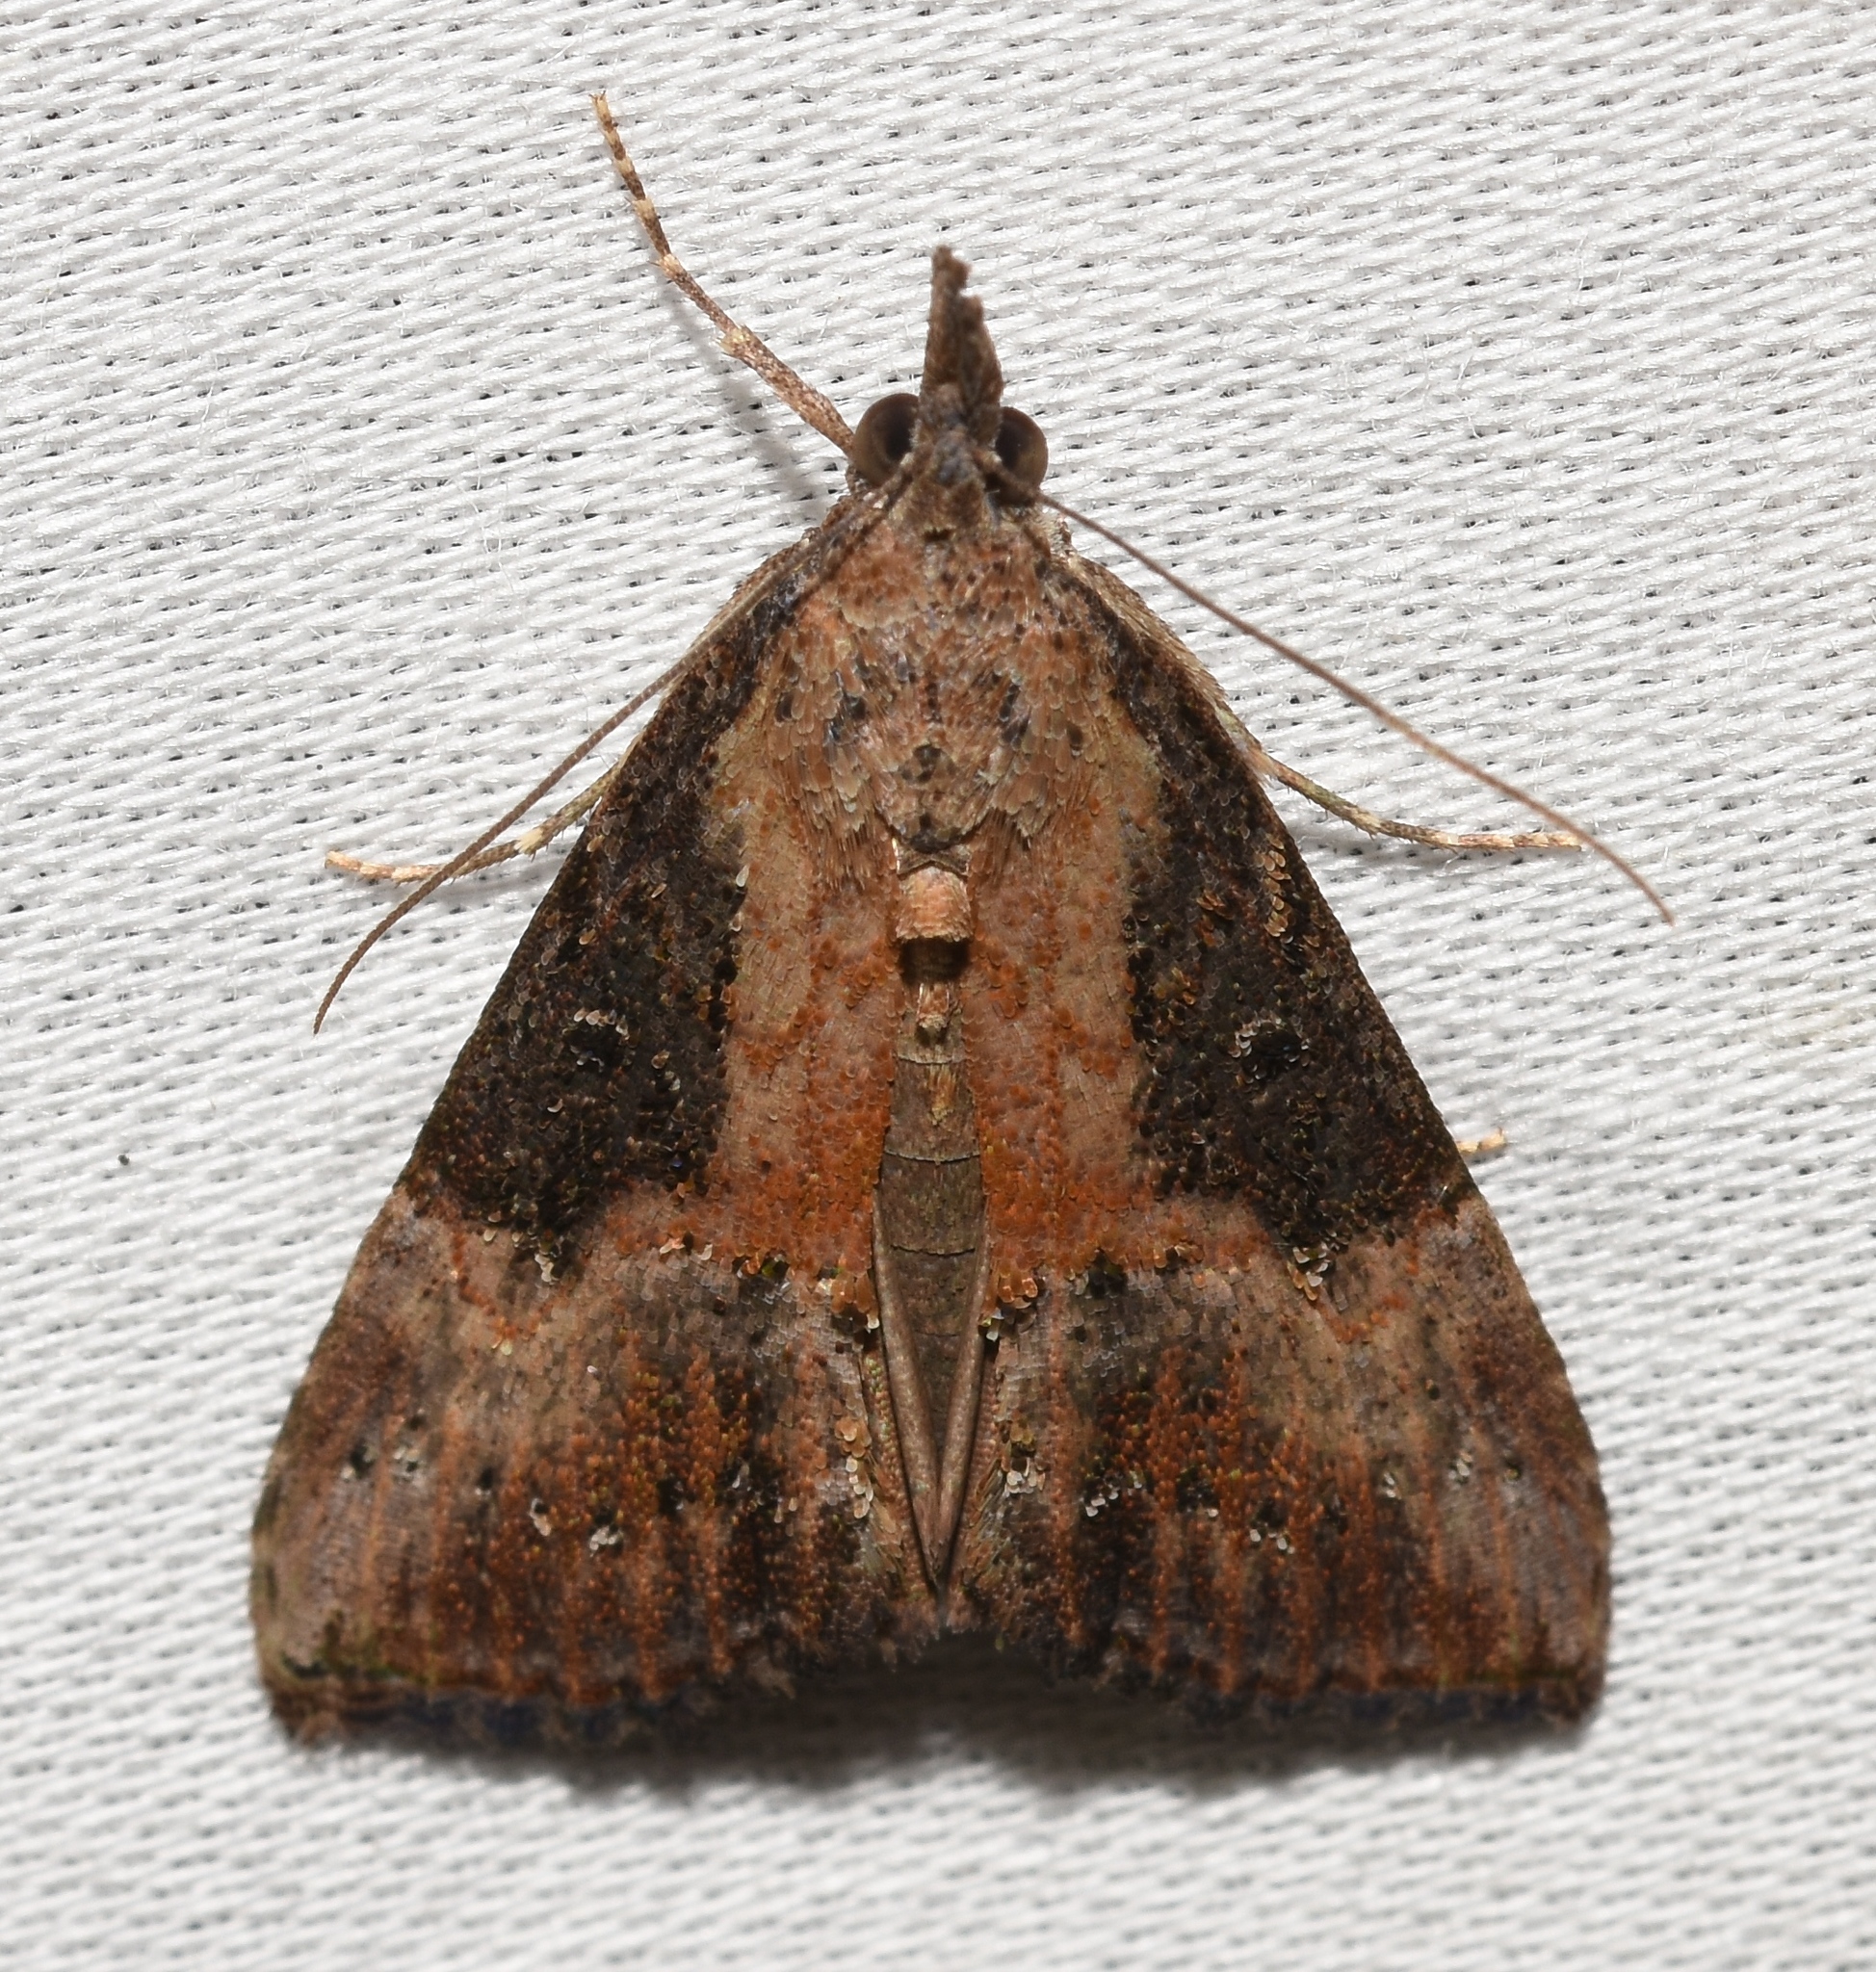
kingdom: Animalia
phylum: Arthropoda
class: Insecta
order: Lepidoptera
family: Erebidae
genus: Hypena
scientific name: Hypena scabra
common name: Green cloverworm
